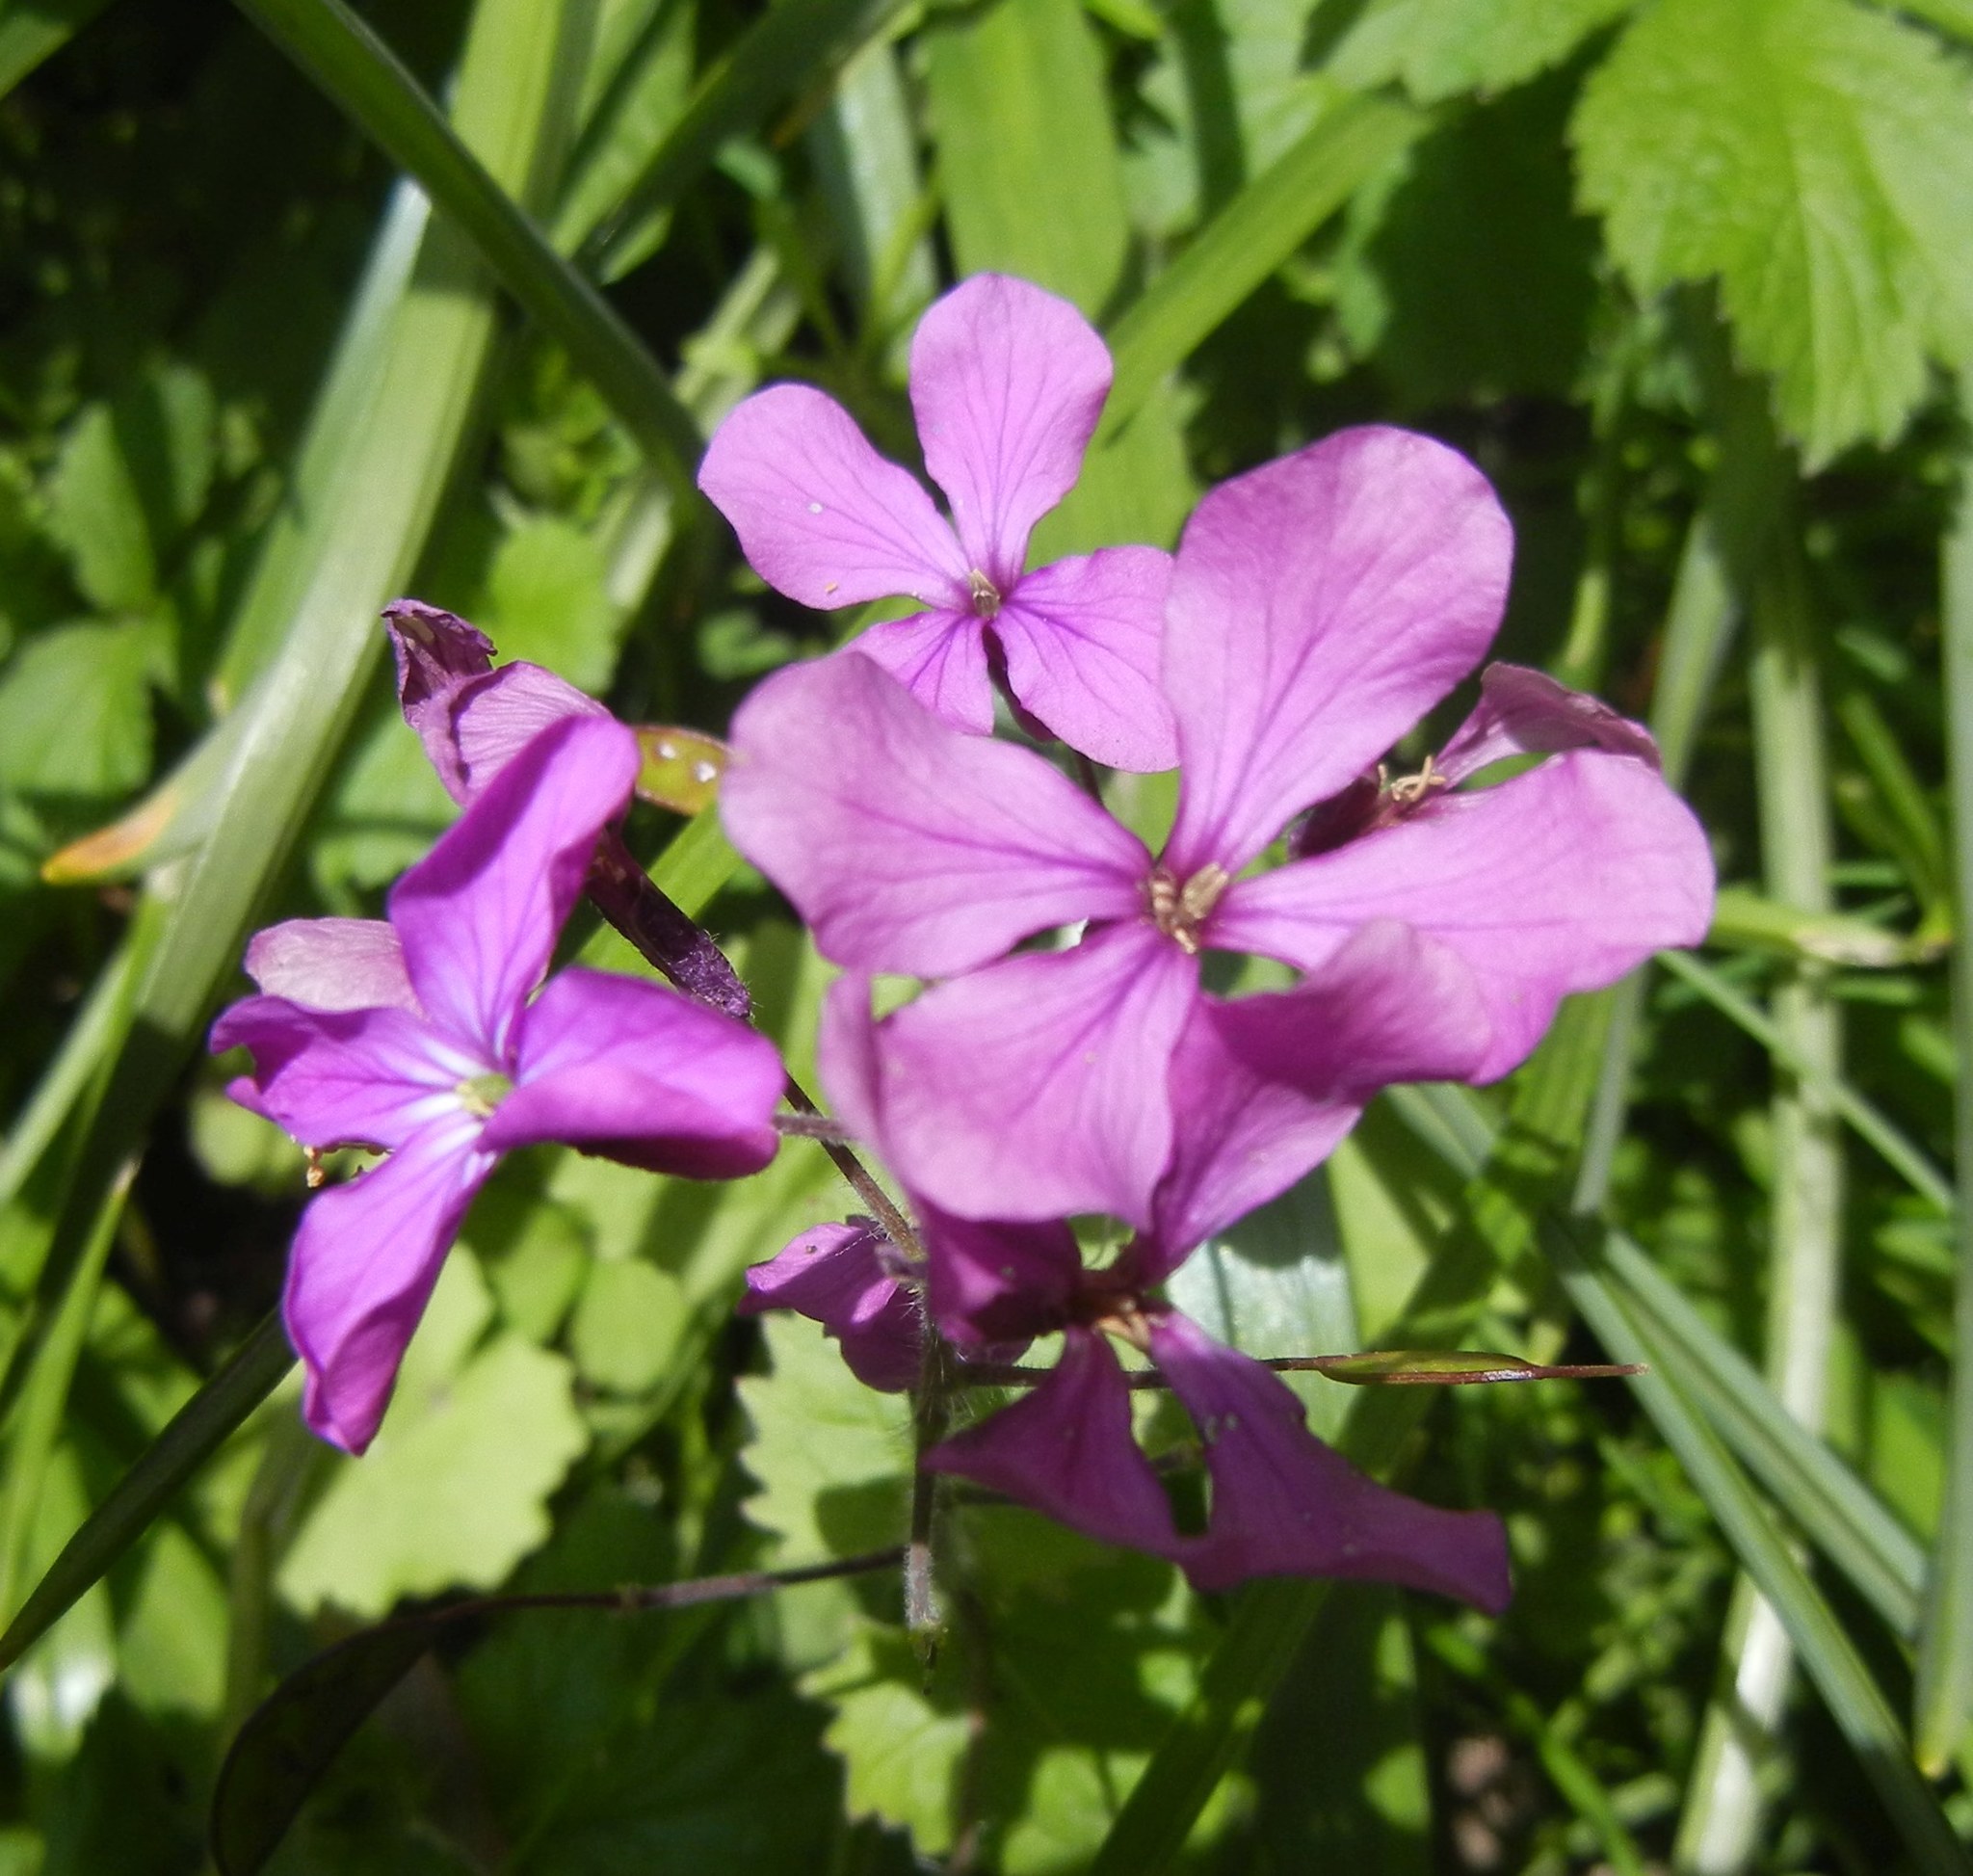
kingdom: Plantae
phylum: Tracheophyta
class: Magnoliopsida
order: Brassicales
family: Brassicaceae
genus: Lunaria
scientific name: Lunaria annua
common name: Honesty
